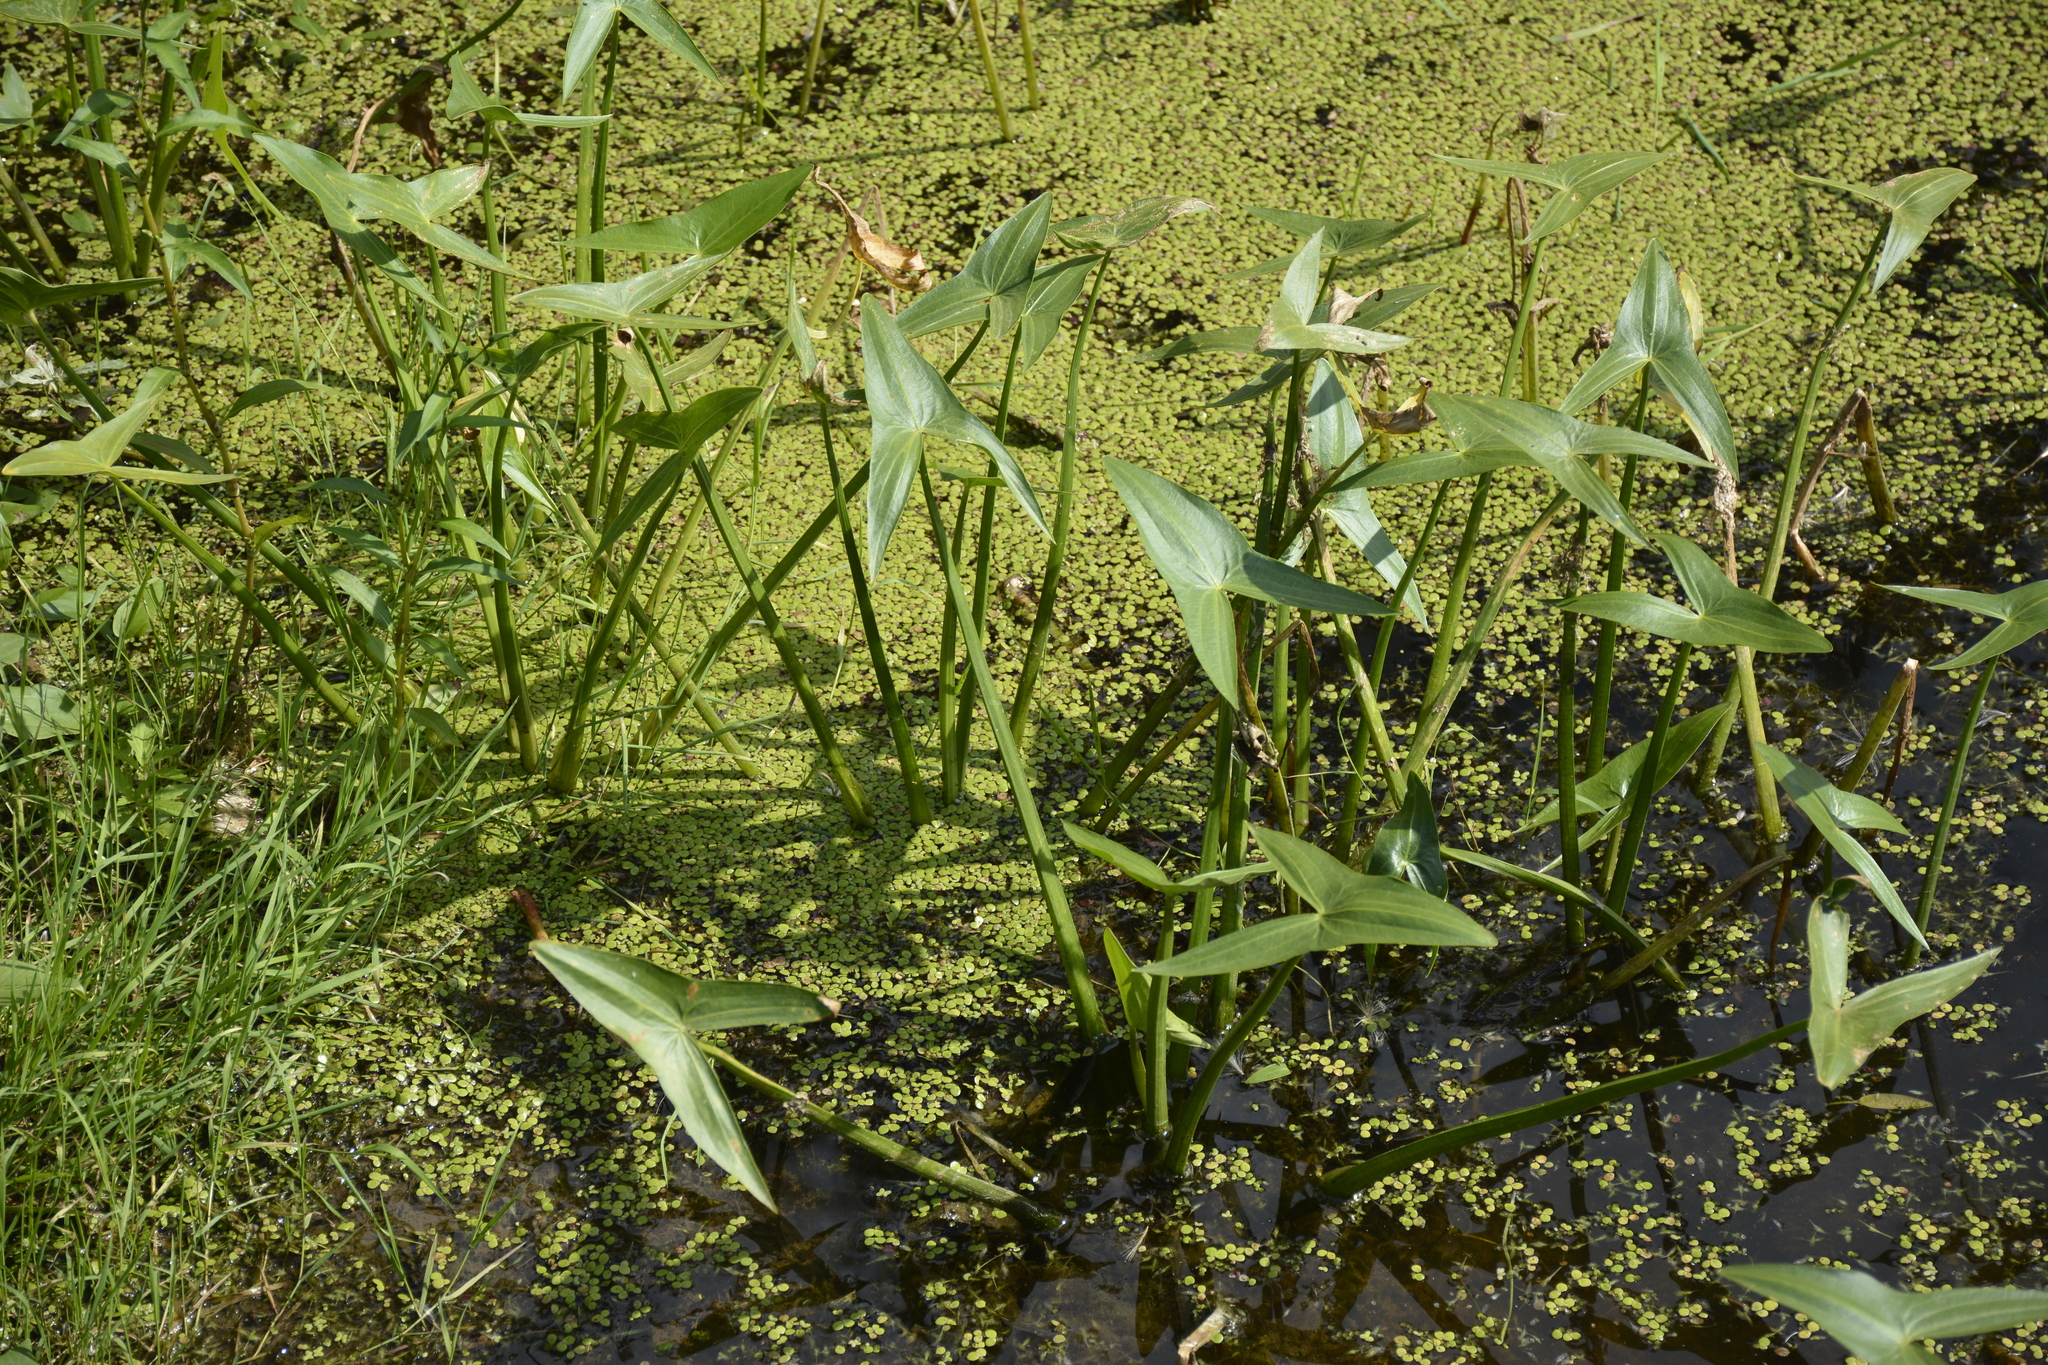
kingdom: Plantae
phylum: Tracheophyta
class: Liliopsida
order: Alismatales
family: Alismataceae
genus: Sagittaria
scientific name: Sagittaria sagittifolia
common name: Arrowhead
